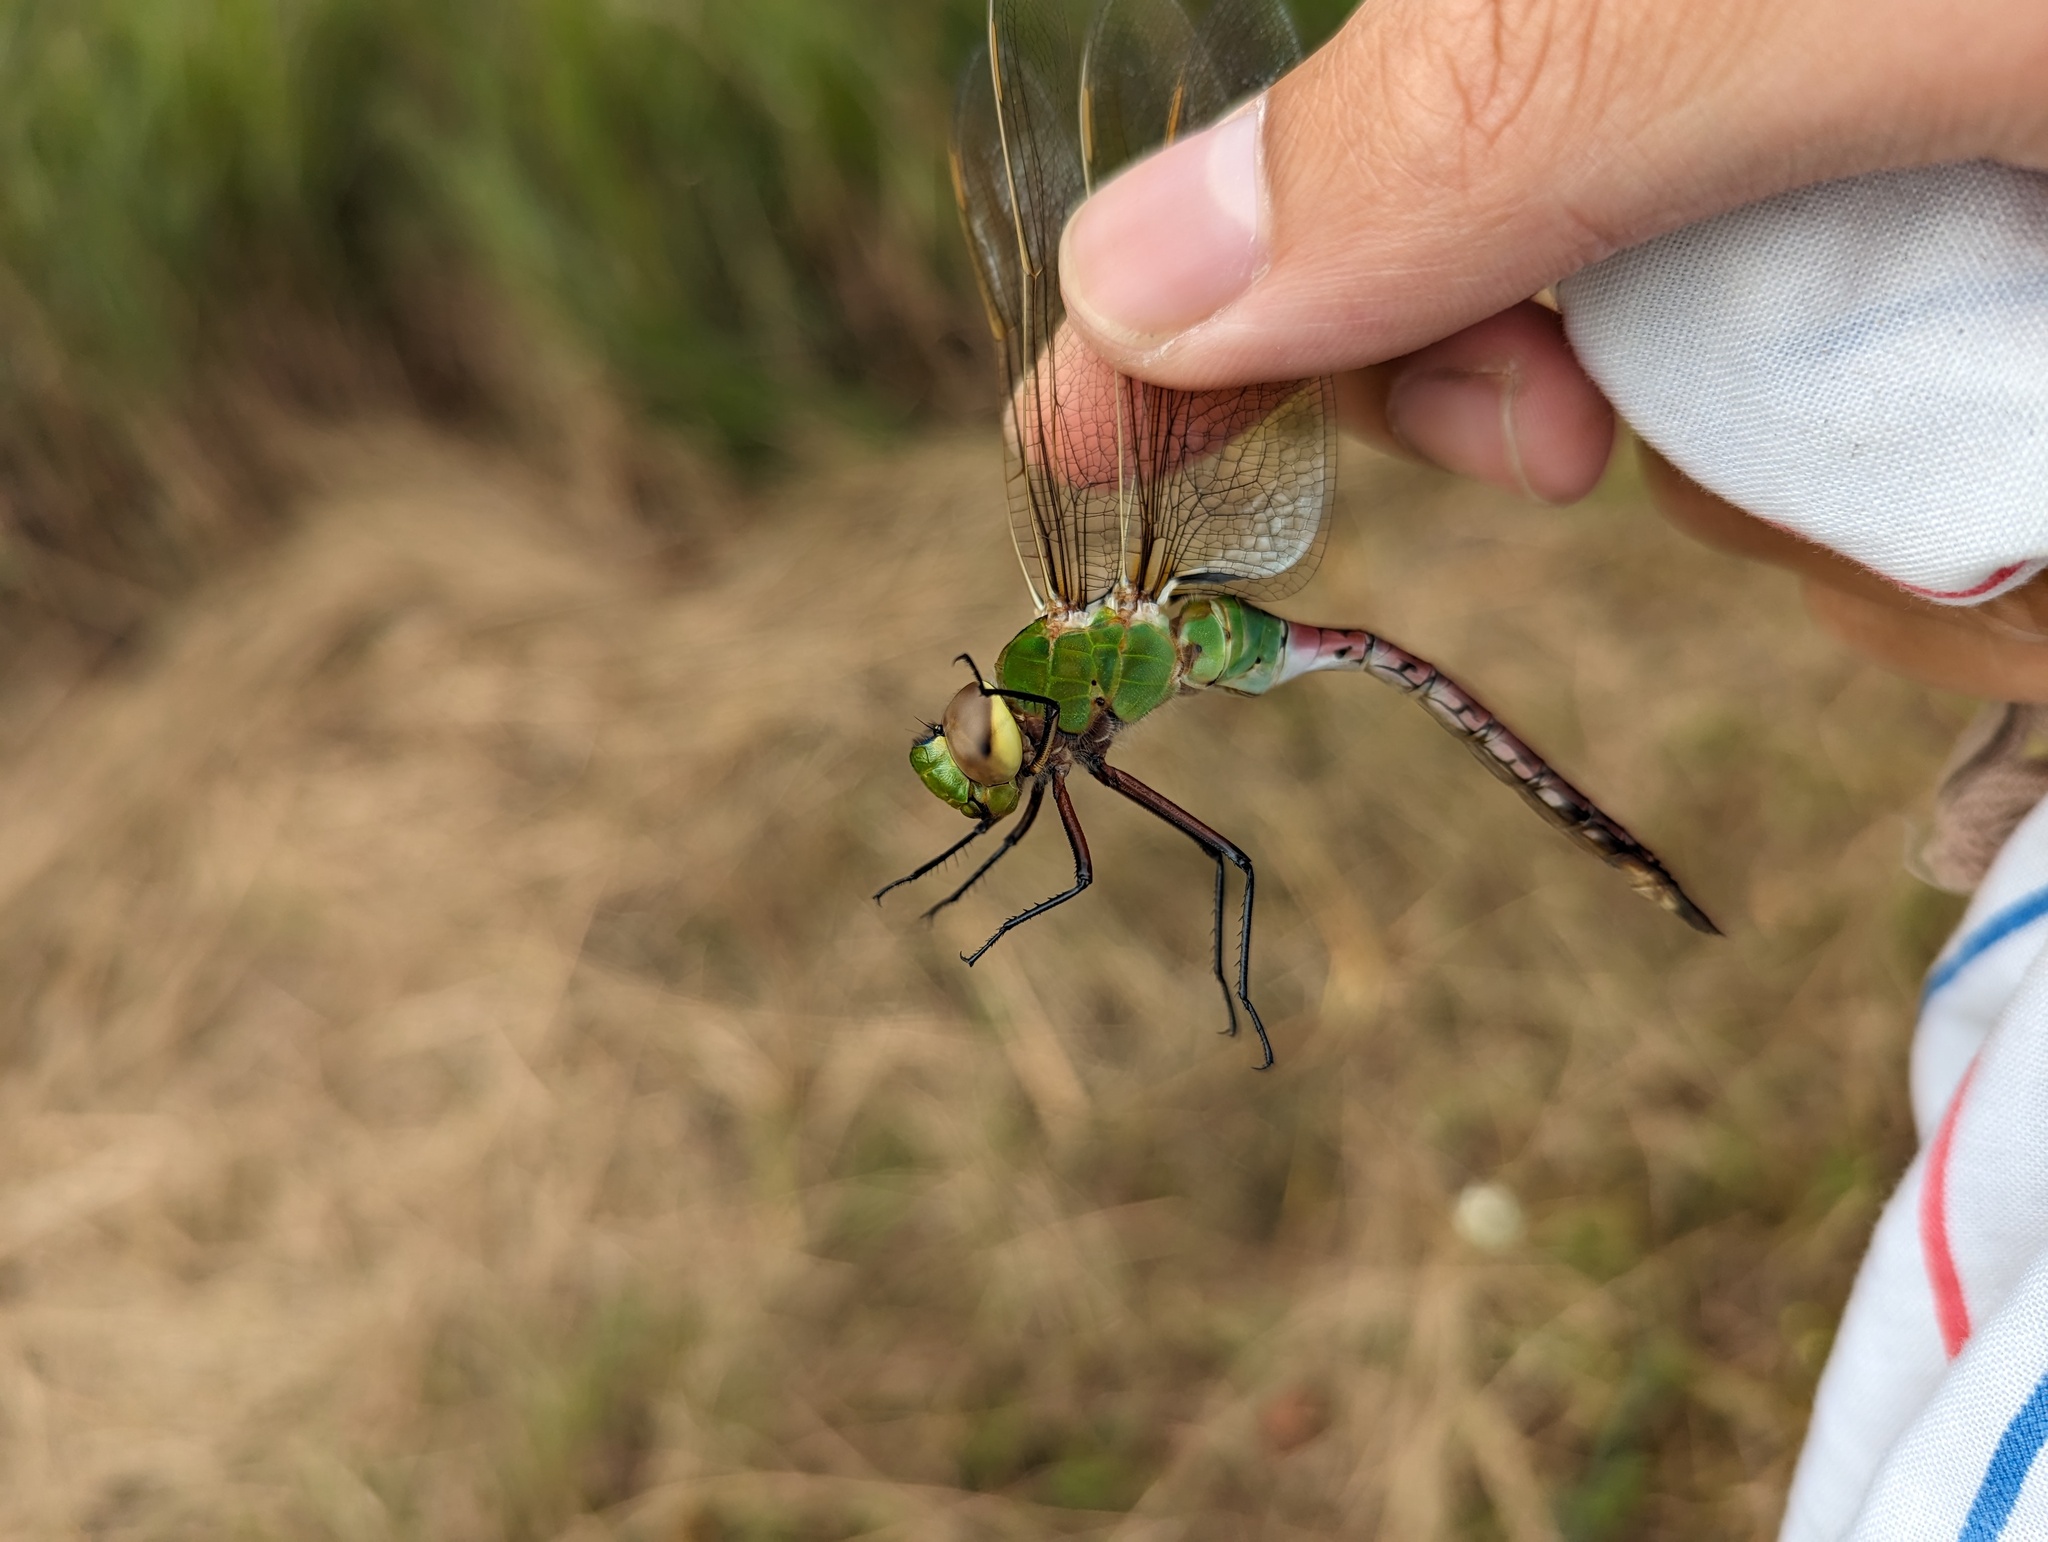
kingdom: Animalia
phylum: Arthropoda
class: Insecta
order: Odonata
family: Aeshnidae
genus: Anax
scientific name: Anax junius
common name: Common green darner
